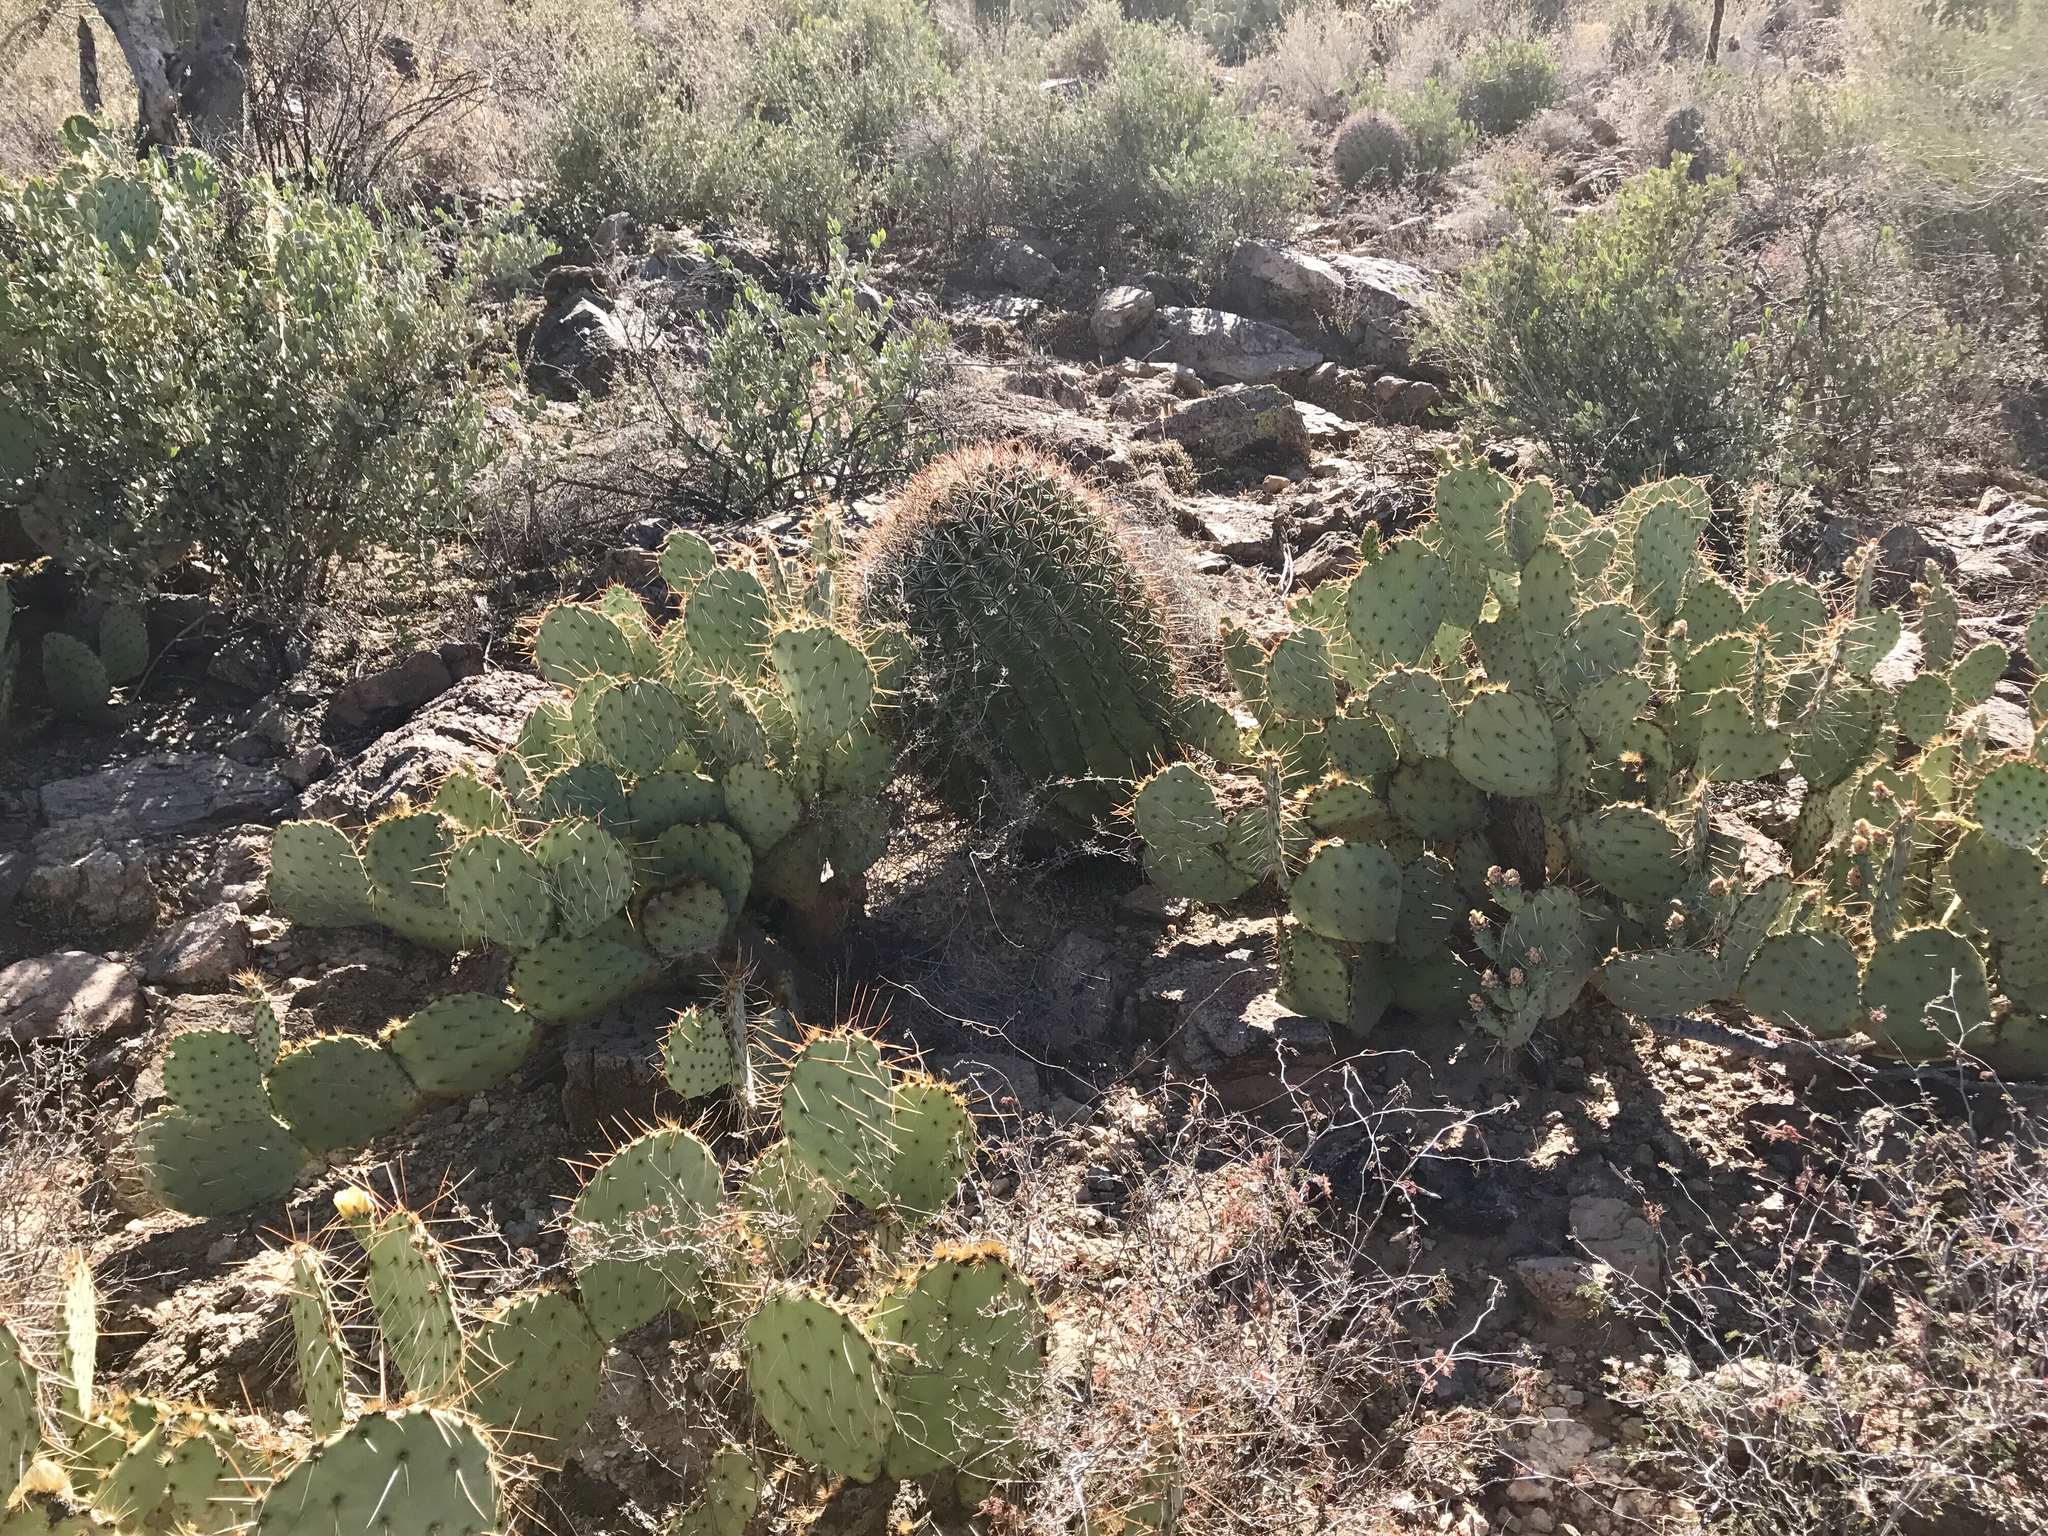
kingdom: Plantae
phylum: Tracheophyta
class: Magnoliopsida
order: Caryophyllales
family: Cactaceae
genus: Ferocactus
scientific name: Ferocactus wislizeni
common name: Candy barrel cactus
